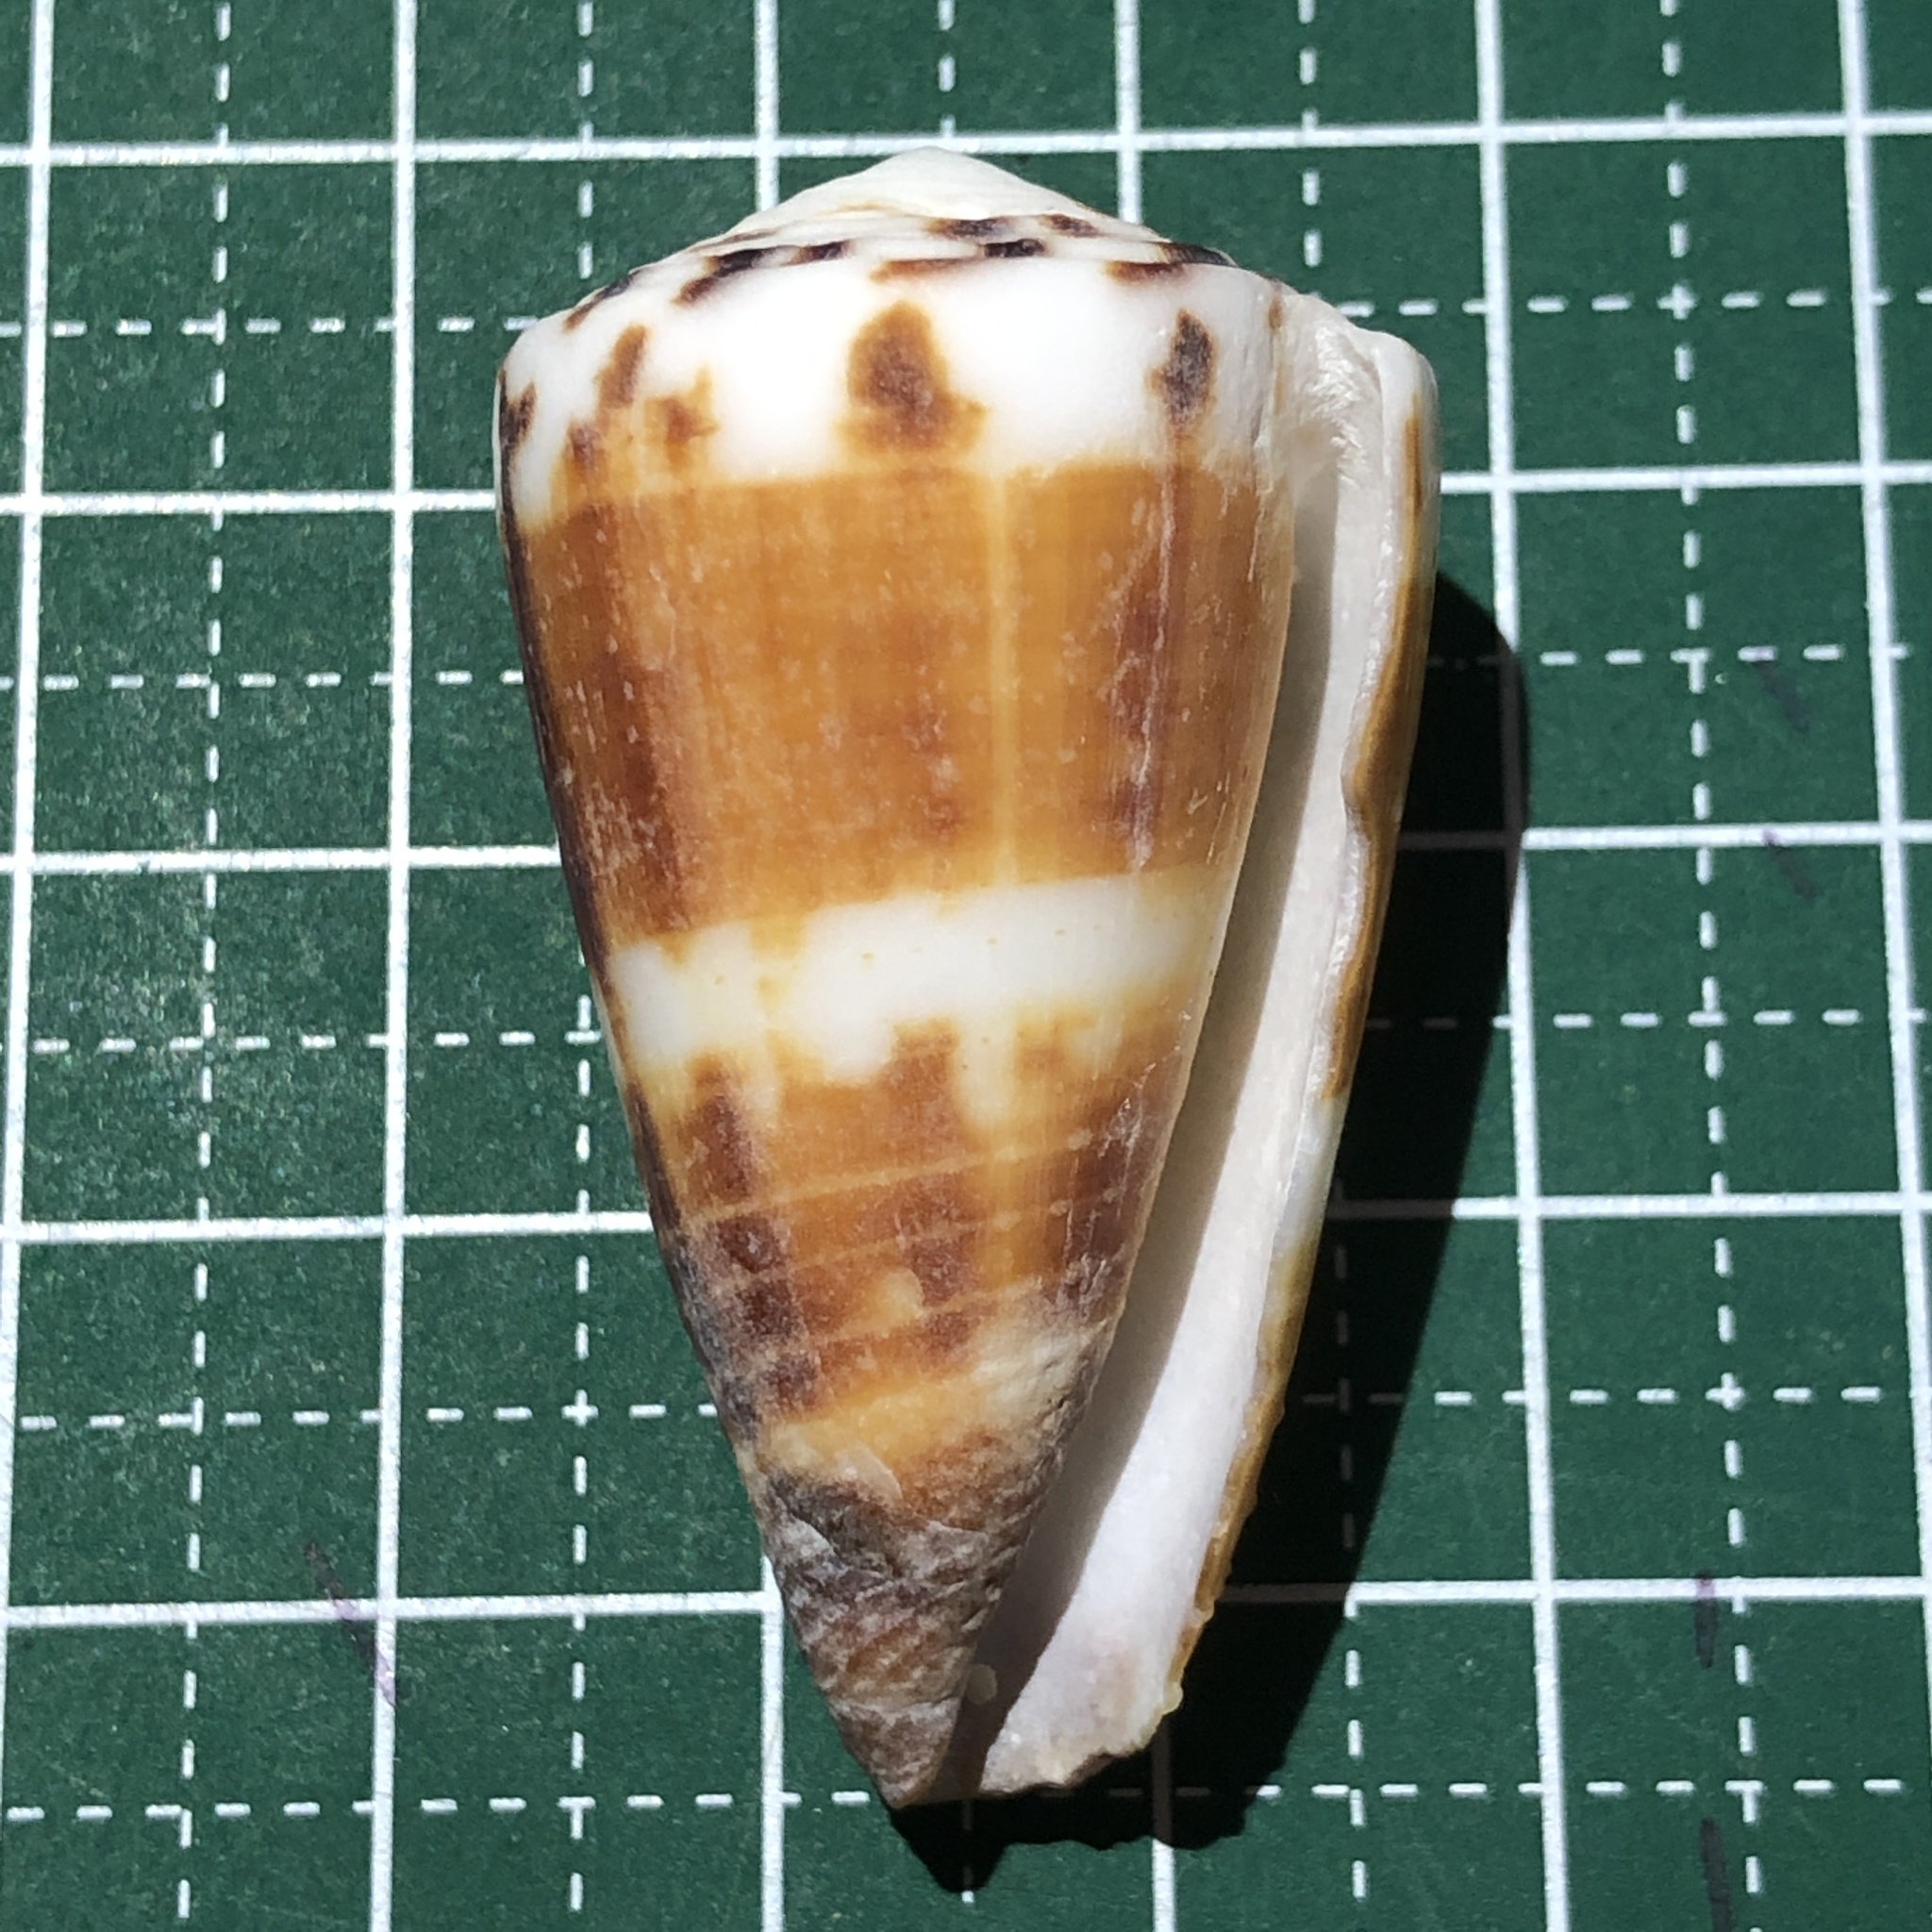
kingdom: Animalia
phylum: Mollusca
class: Gastropoda
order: Neogastropoda
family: Conidae
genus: Conus
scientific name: Conus planorbis
